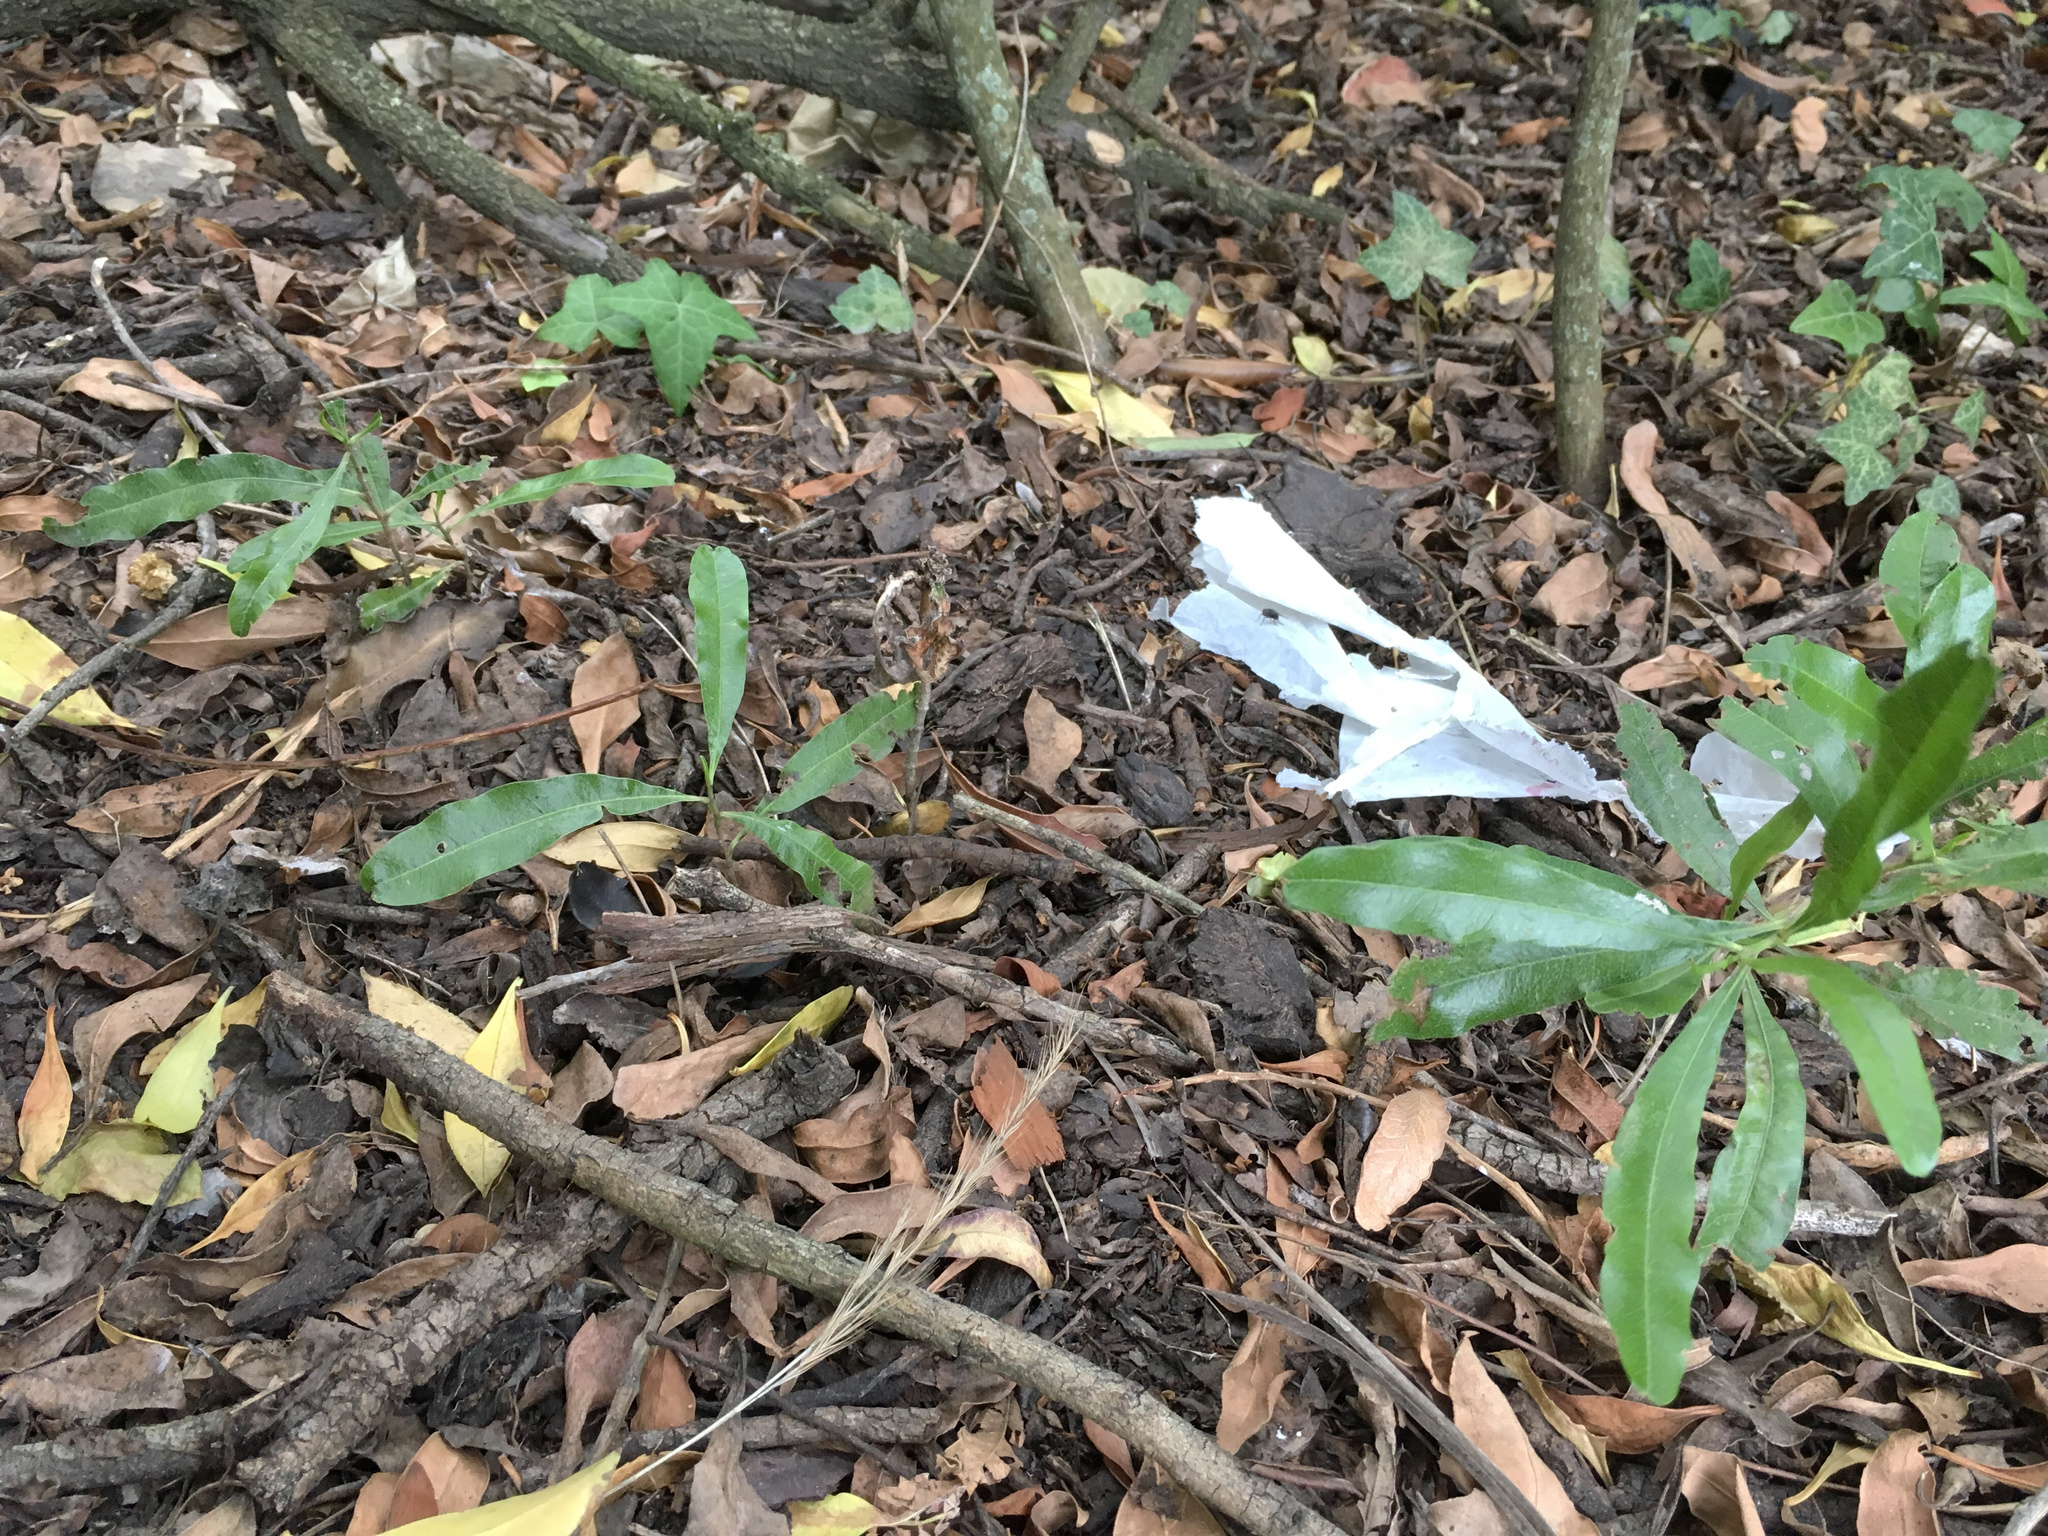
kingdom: Plantae
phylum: Tracheophyta
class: Magnoliopsida
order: Sapindales
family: Sapindaceae
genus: Dodonaea
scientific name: Dodonaea viscosa
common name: Hopbush
